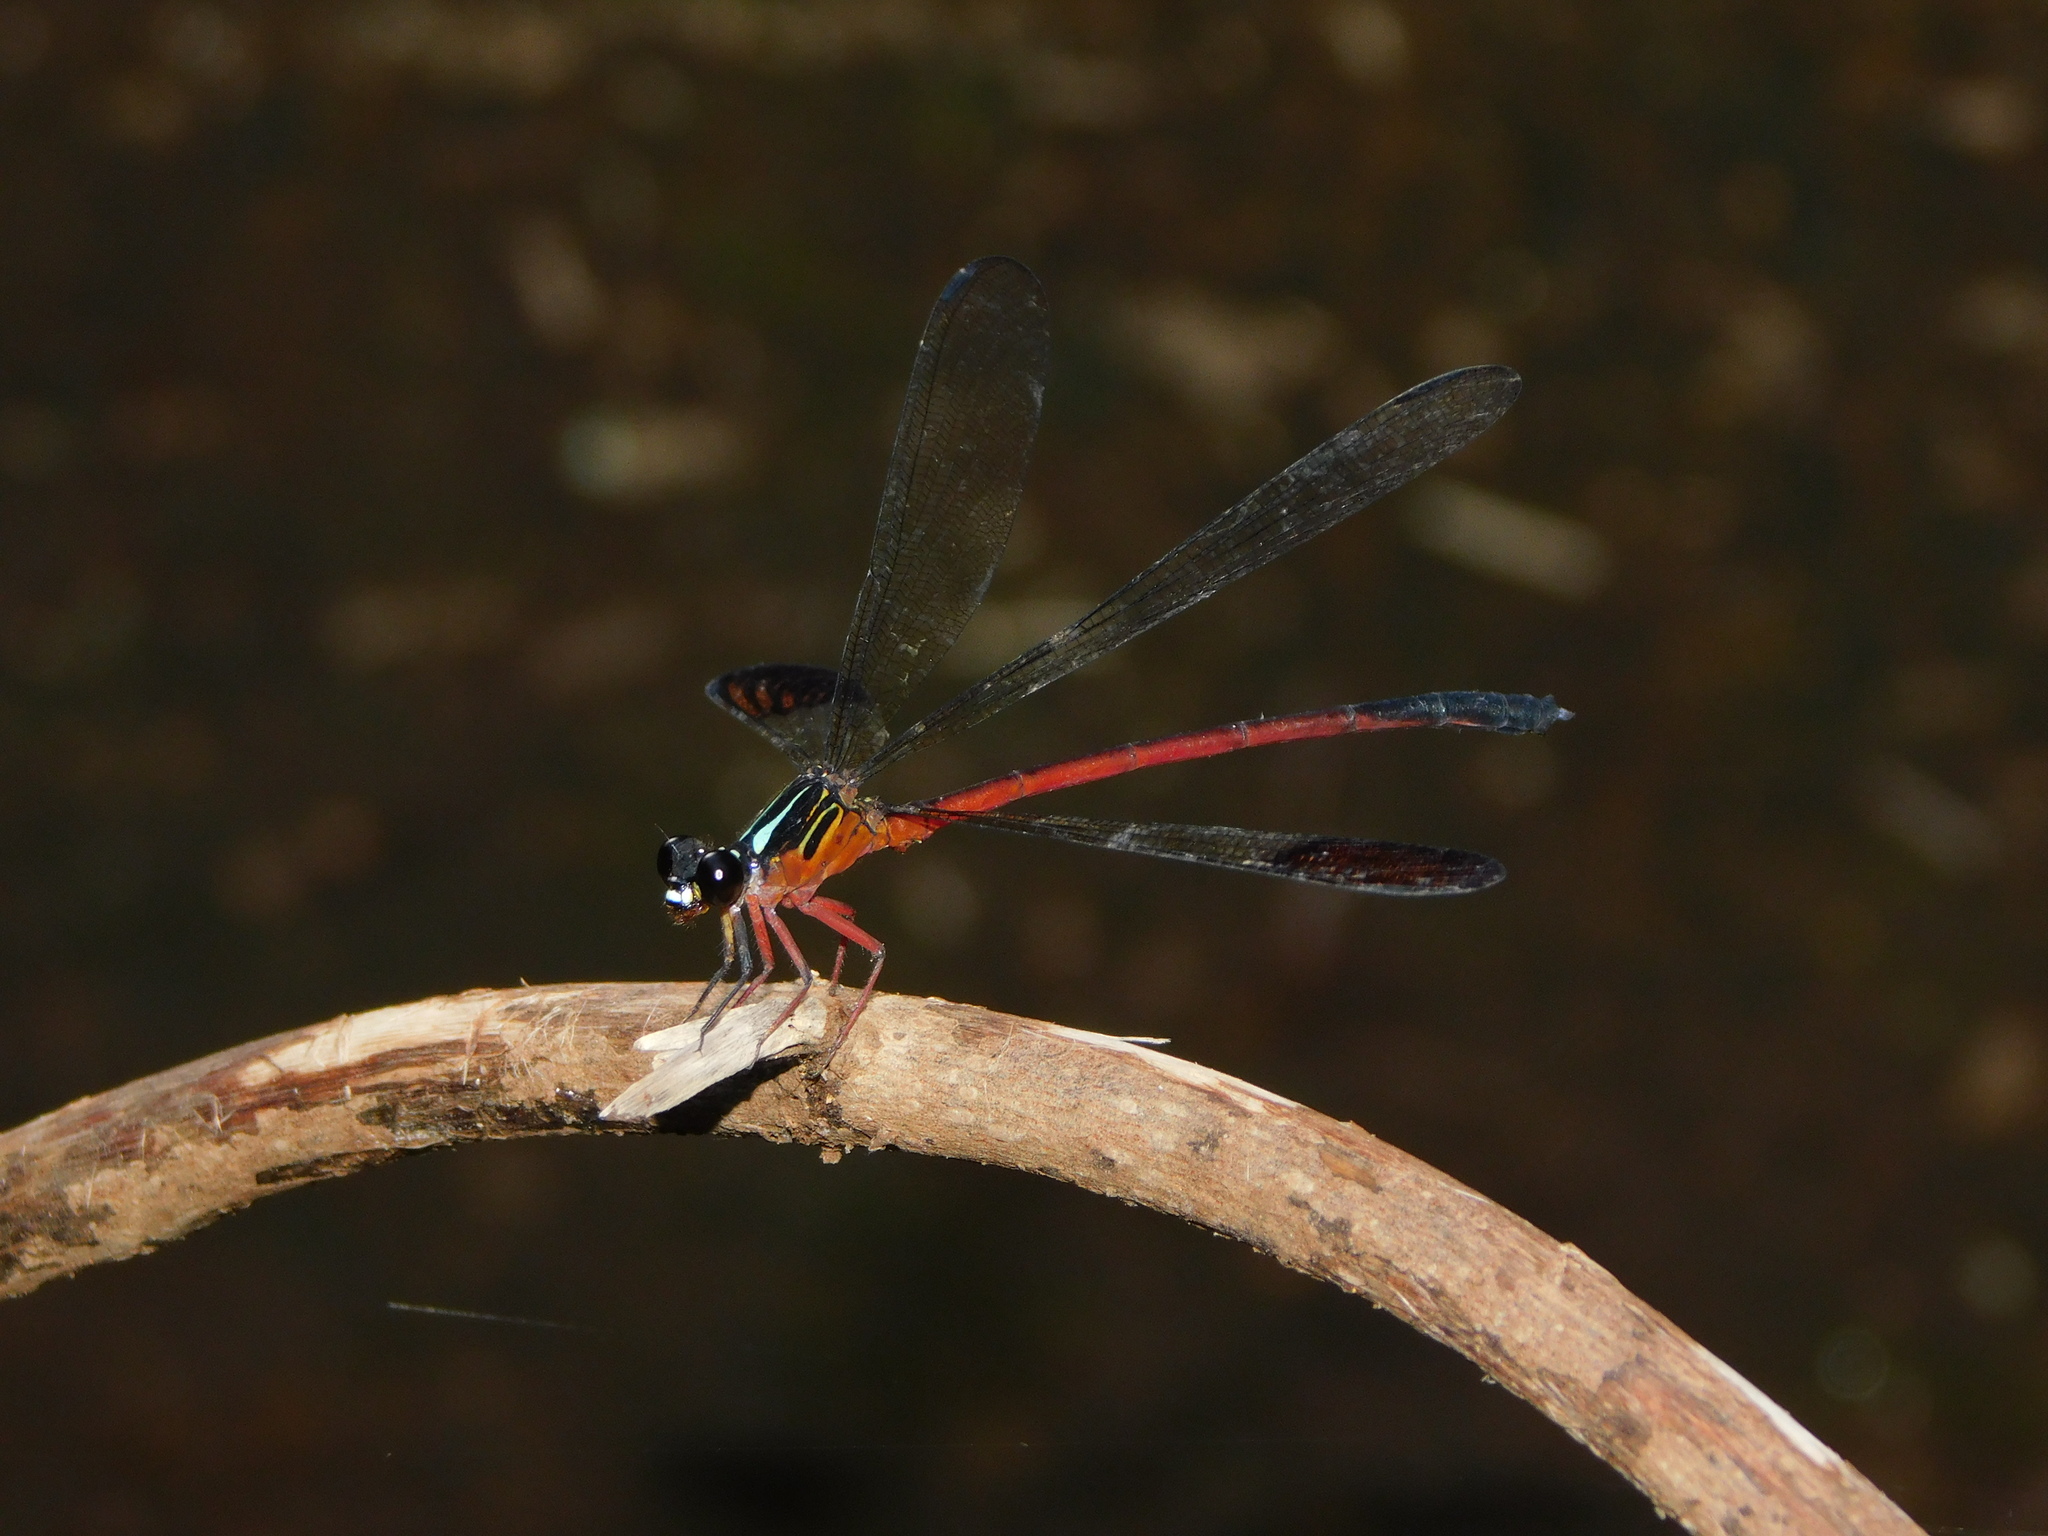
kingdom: Animalia
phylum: Arthropoda
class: Insecta
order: Odonata
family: Euphaeidae
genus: Euphaea
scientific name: Euphaea fraseri
